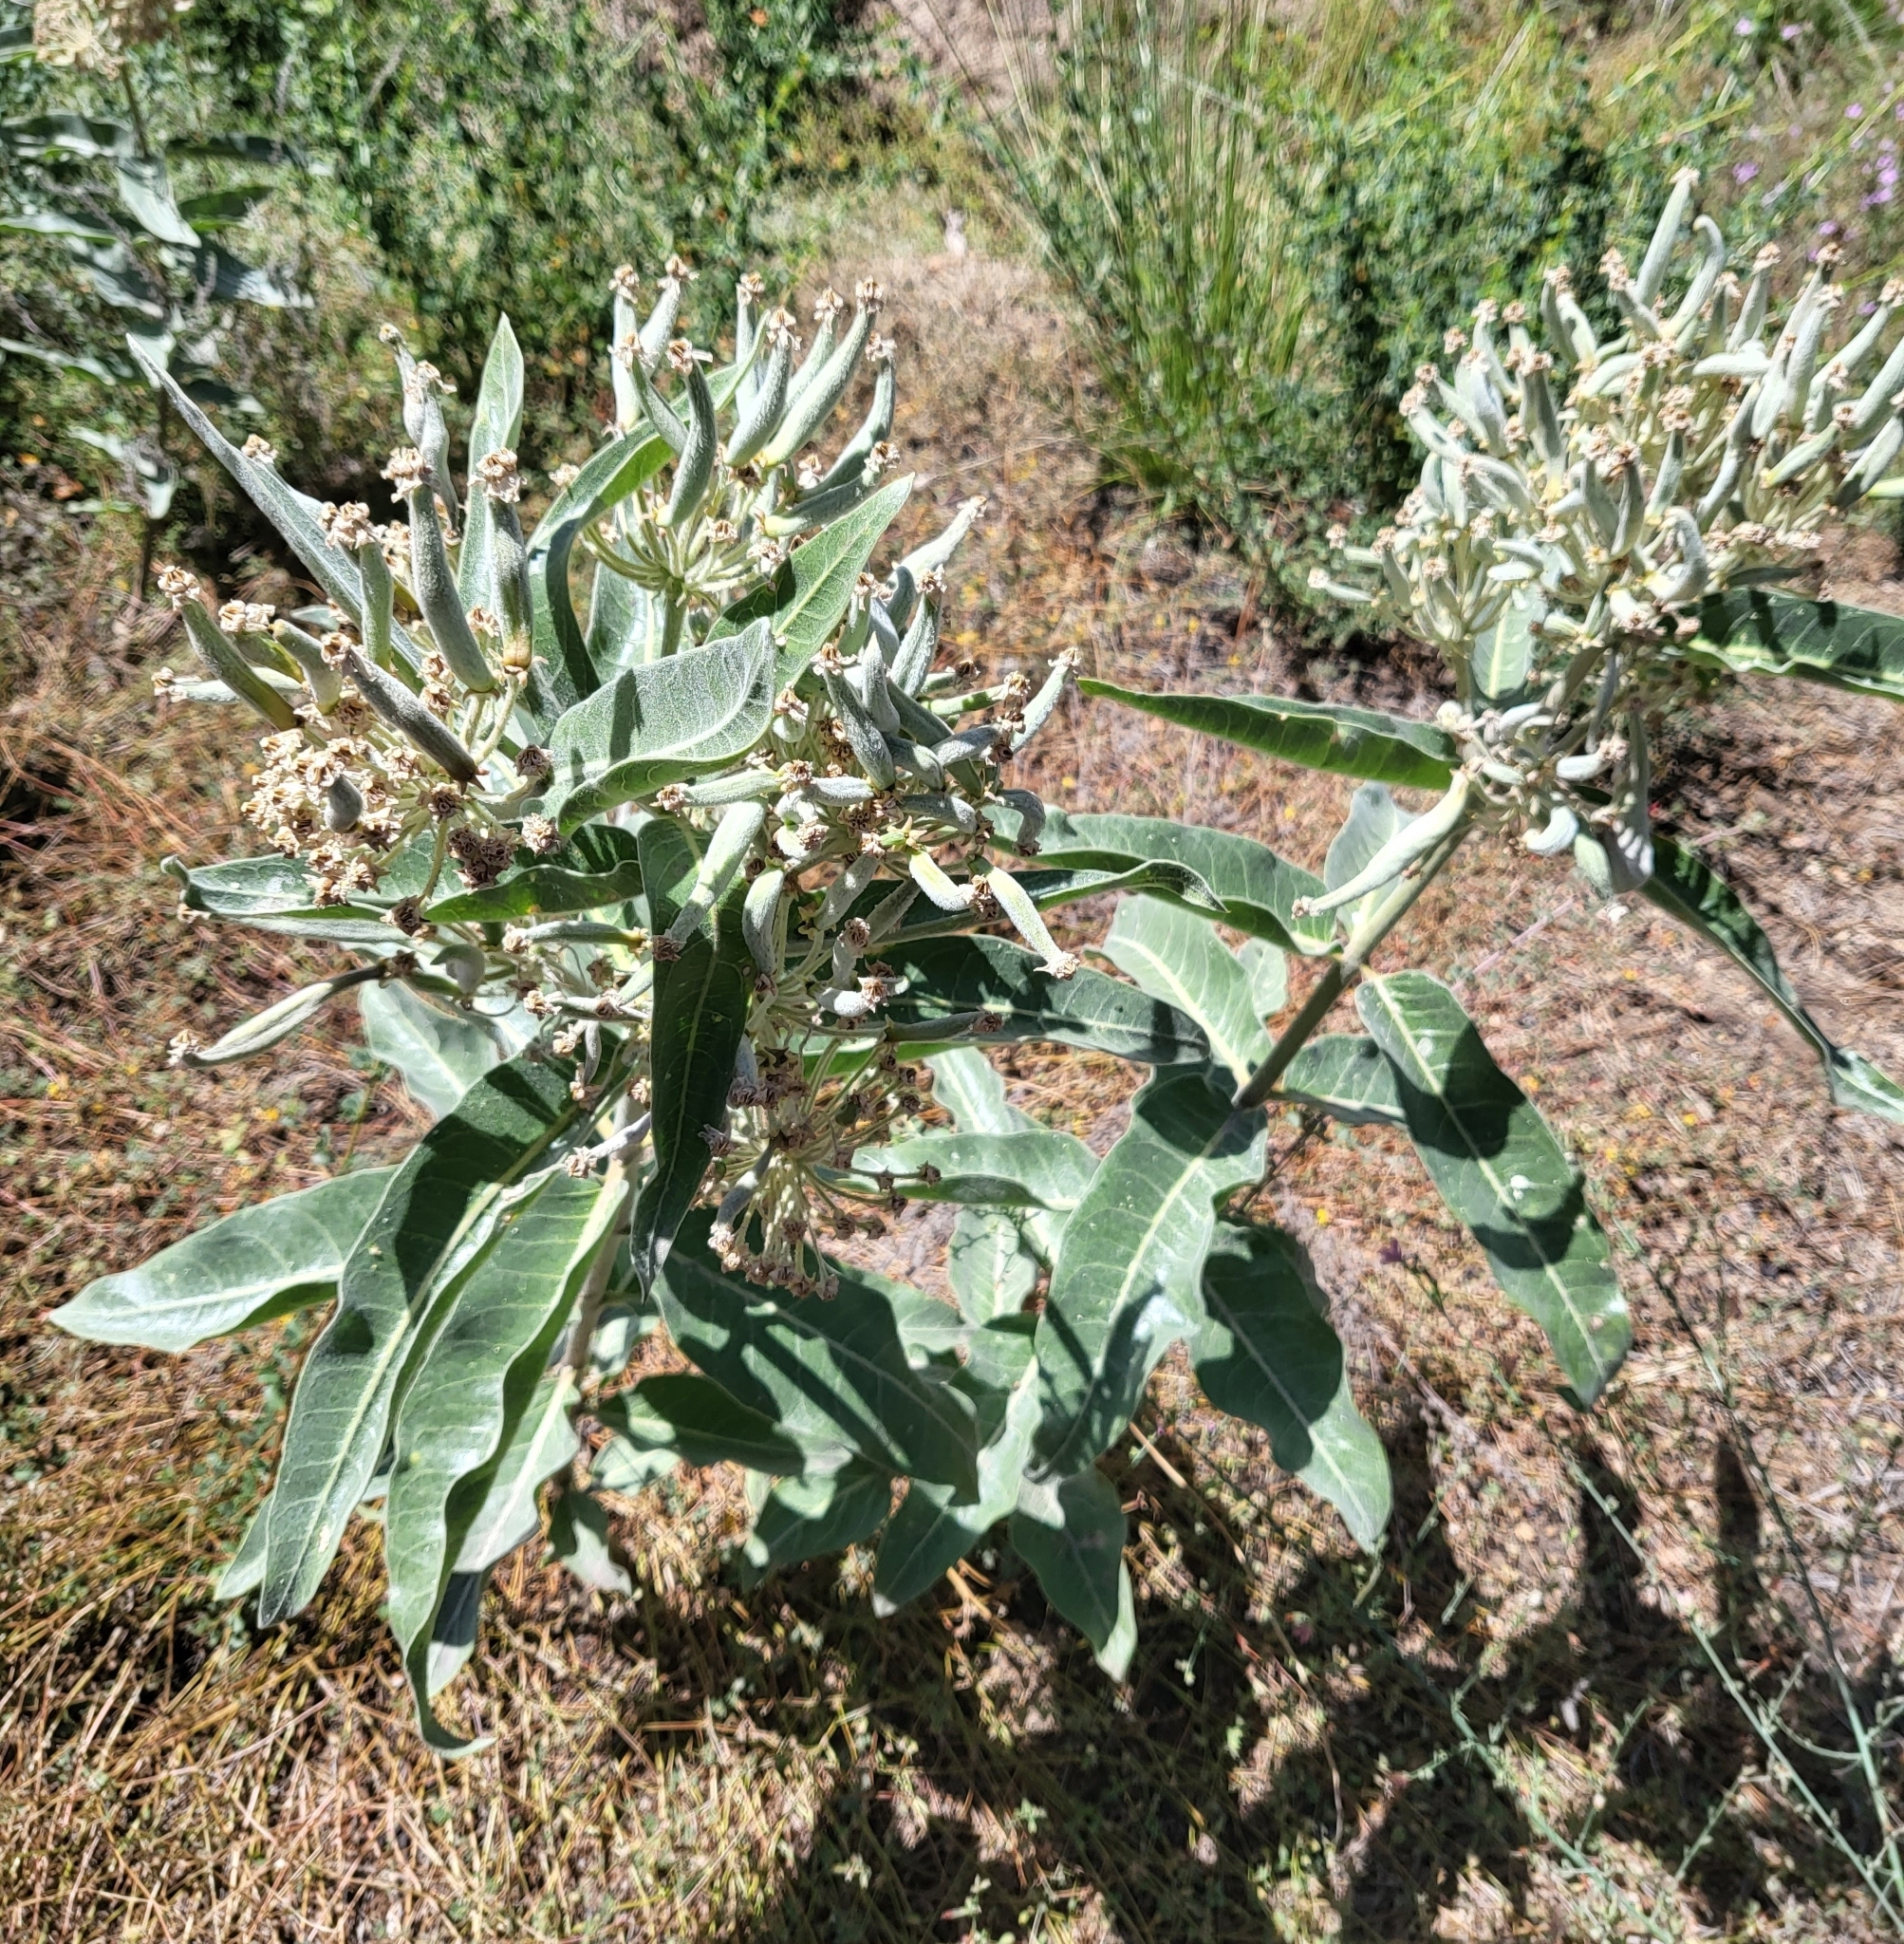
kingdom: Plantae
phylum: Tracheophyta
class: Magnoliopsida
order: Gentianales
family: Apocynaceae
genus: Asclepias
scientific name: Asclepias eriocarpa
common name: Indian milkweed
